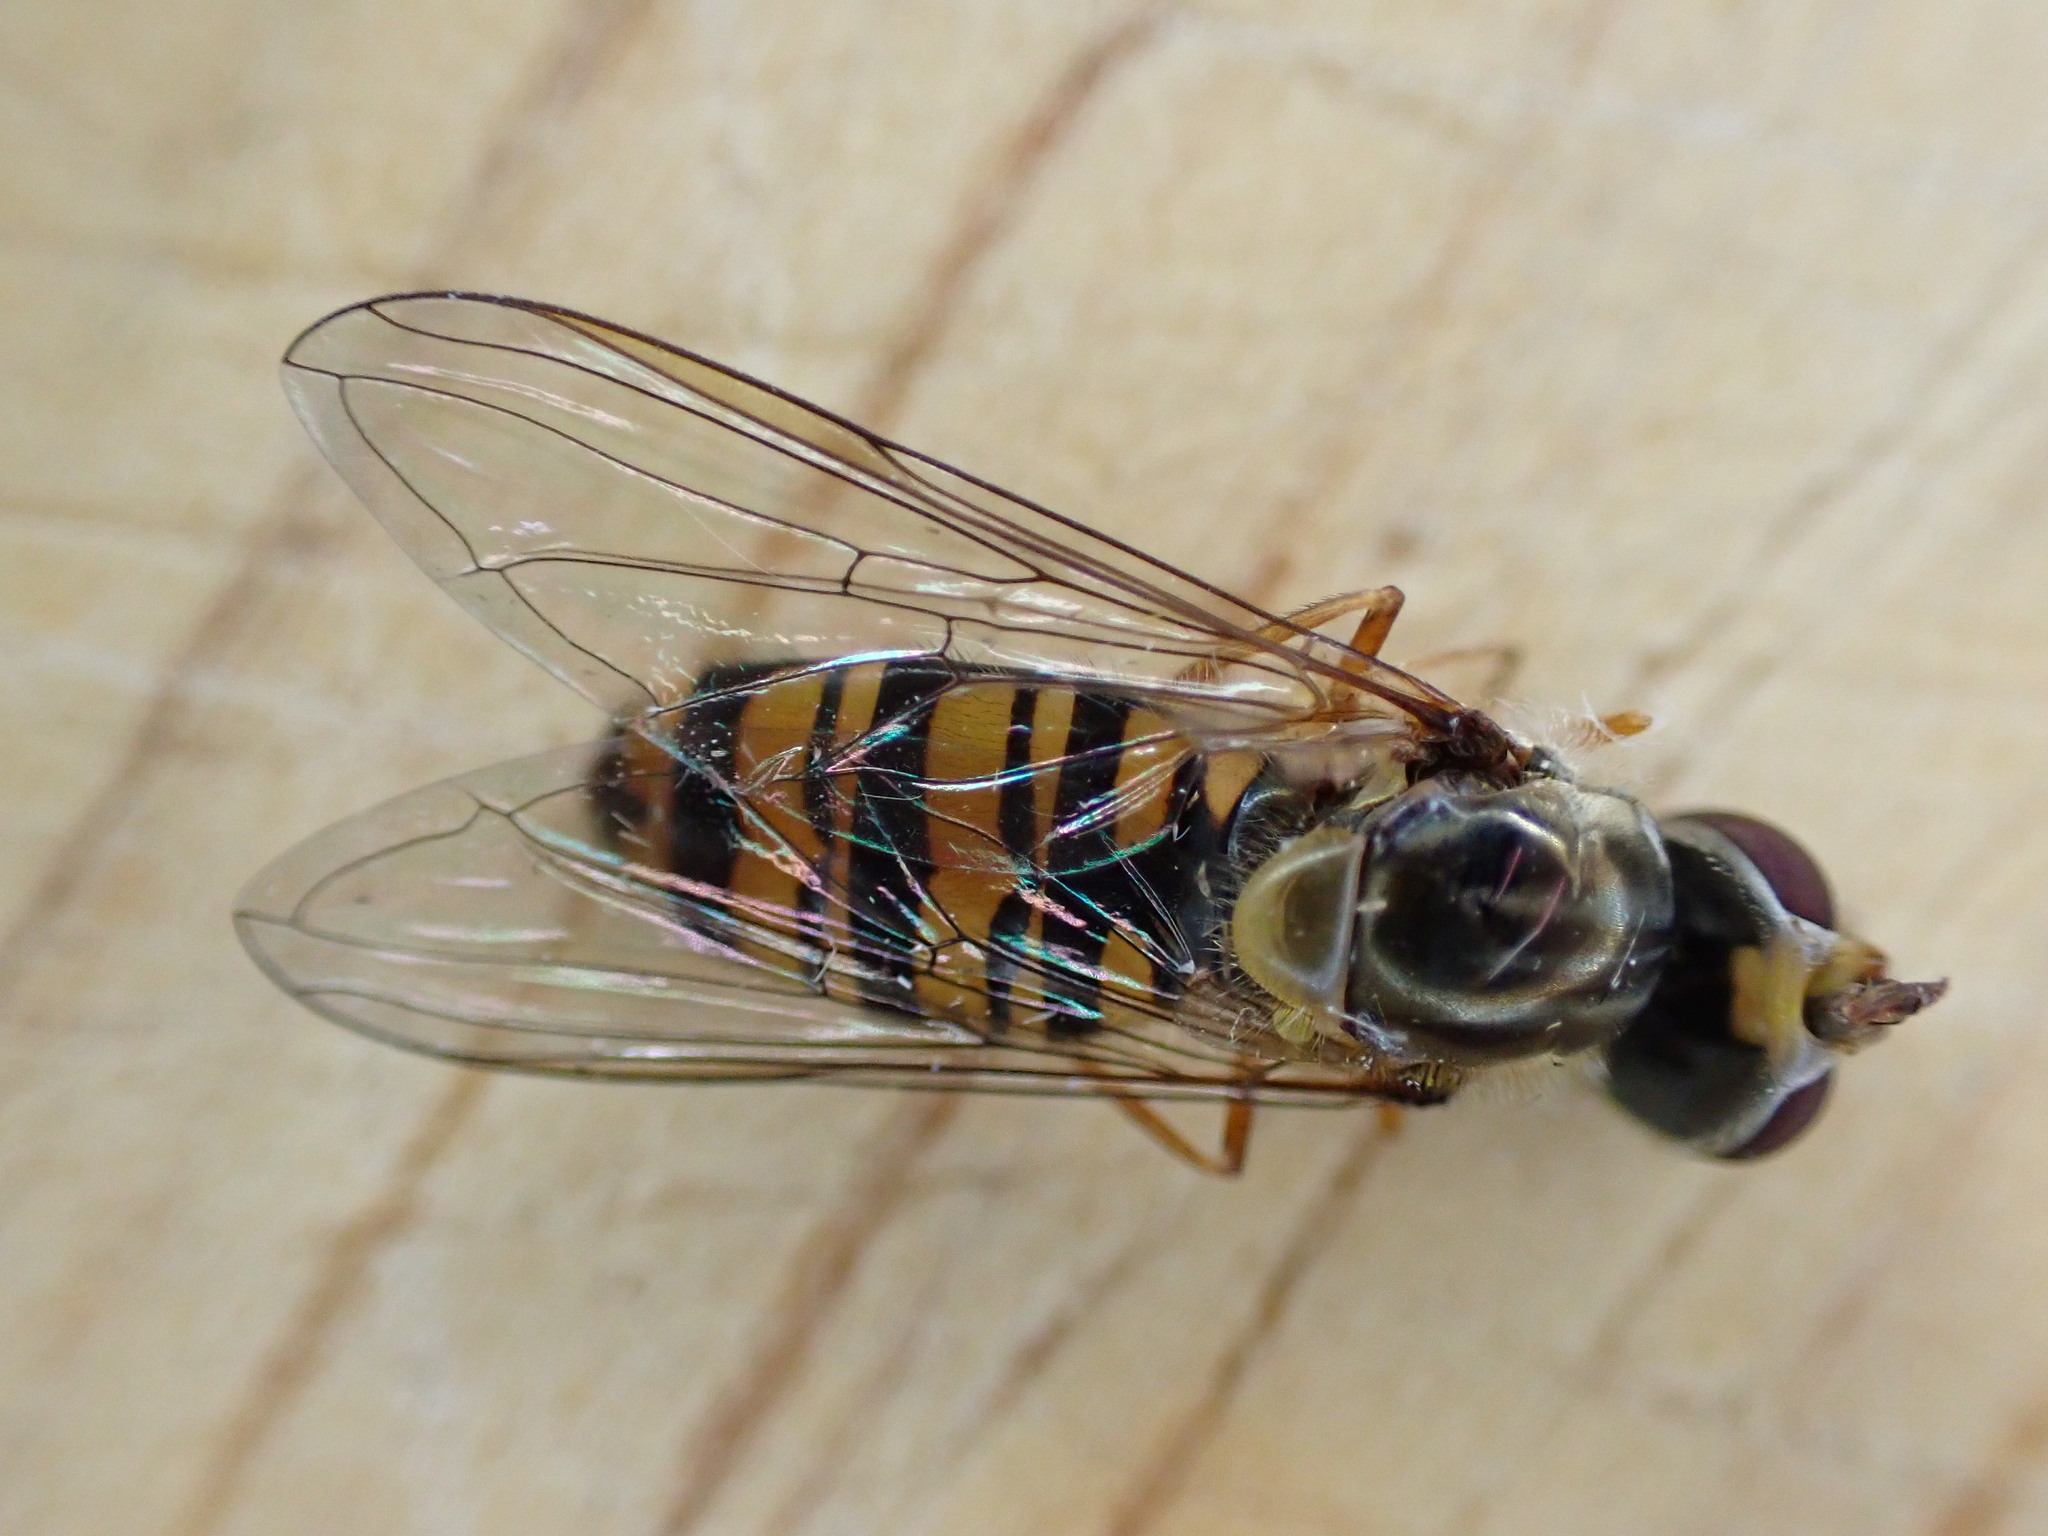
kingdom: Animalia
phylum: Arthropoda
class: Insecta
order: Diptera
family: Syrphidae
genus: Episyrphus
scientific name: Episyrphus balteatus
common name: Marmalade hoverfly
